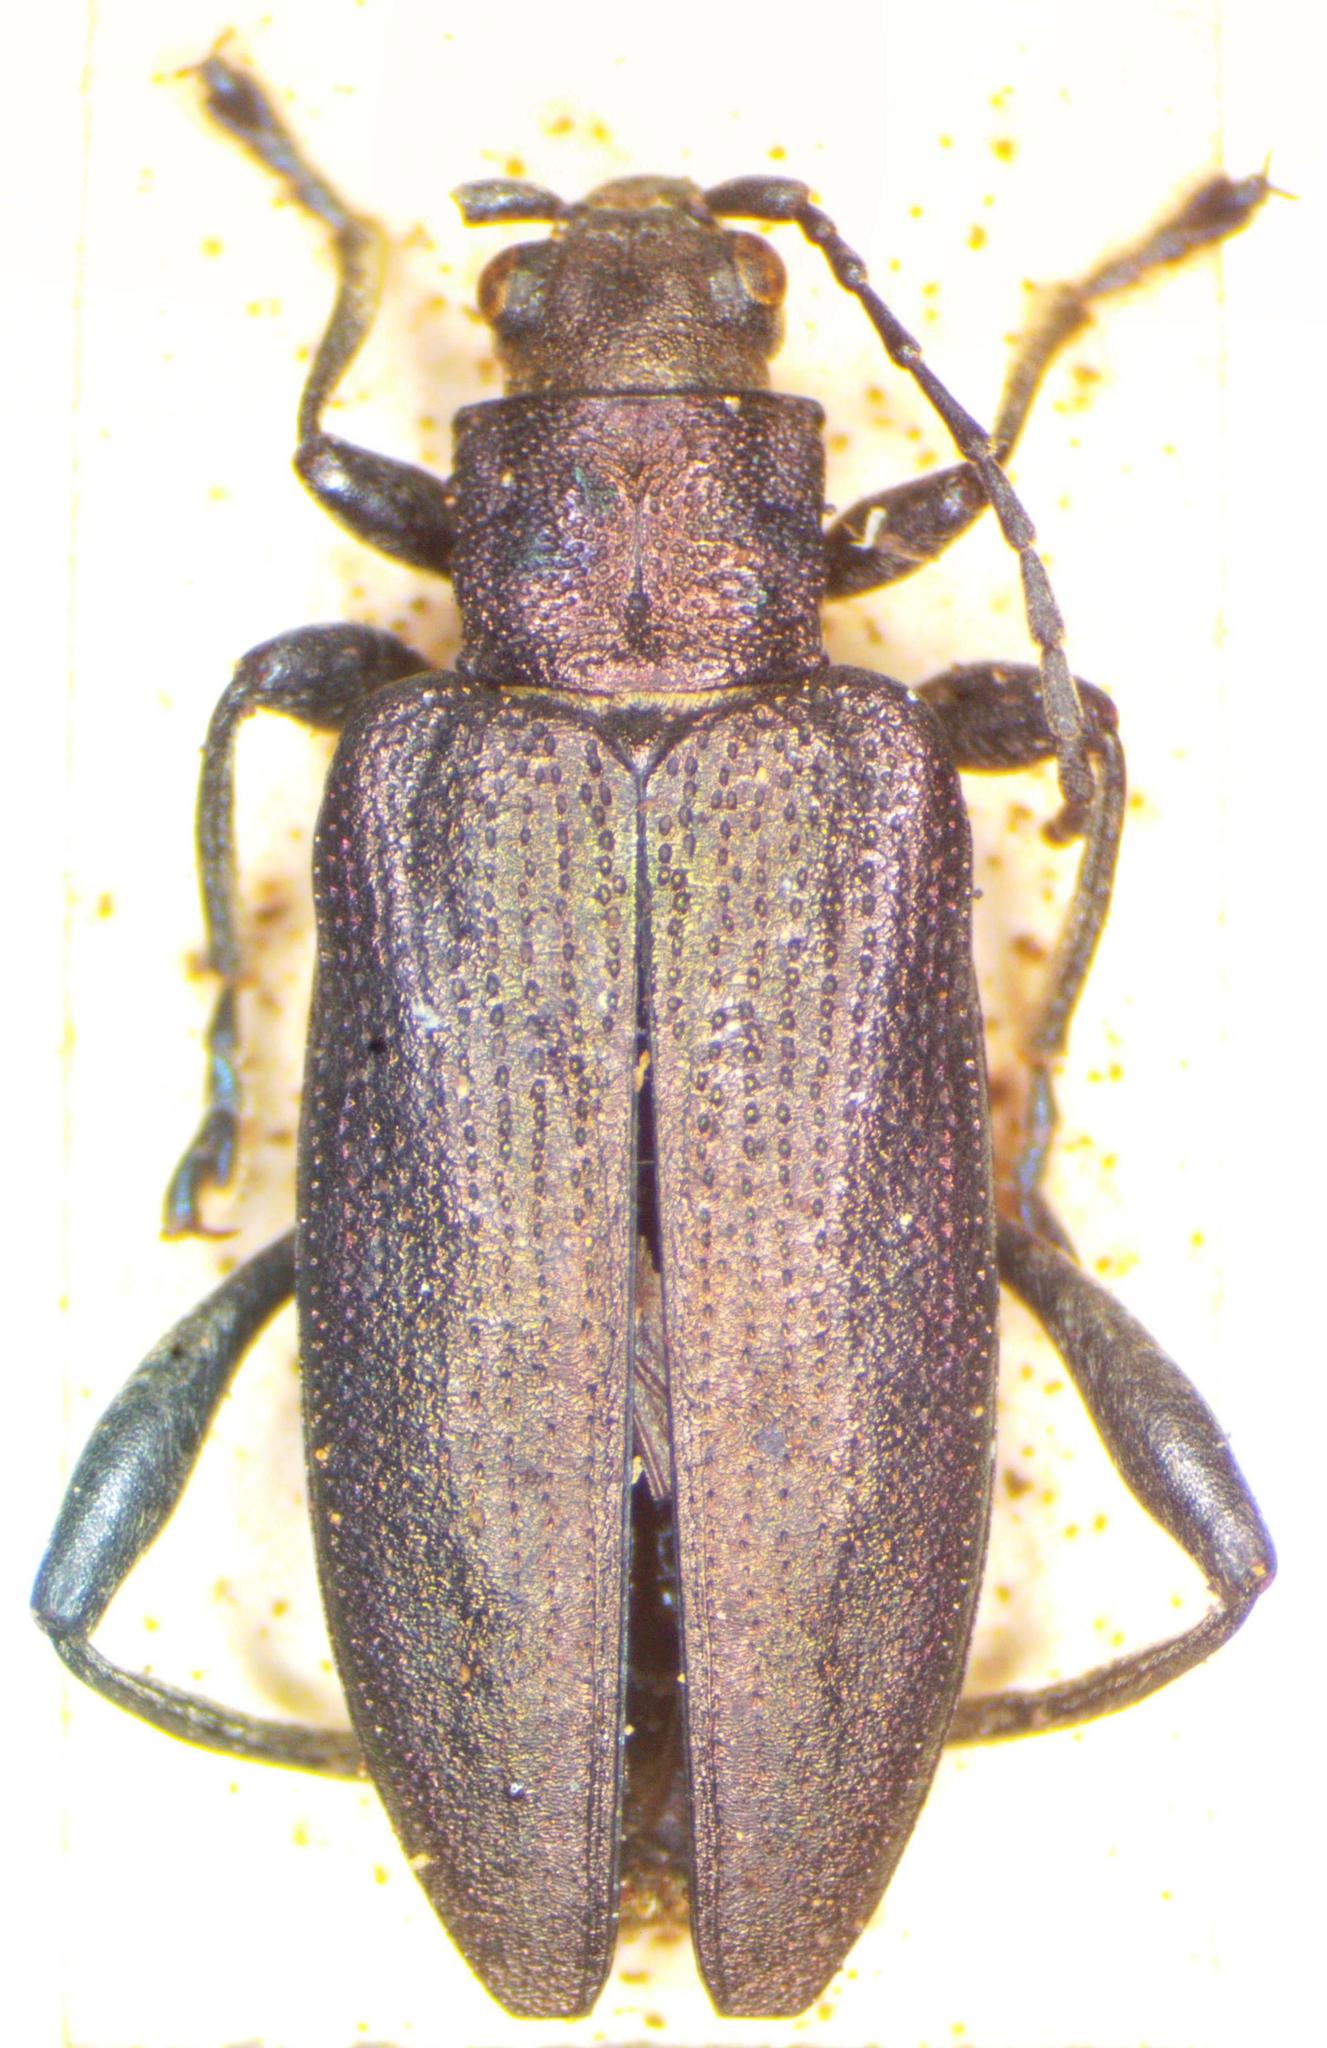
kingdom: Animalia
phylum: Arthropoda
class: Insecta
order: Coleoptera
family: Chrysomelidae
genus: Donacia
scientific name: Donacia marginata
